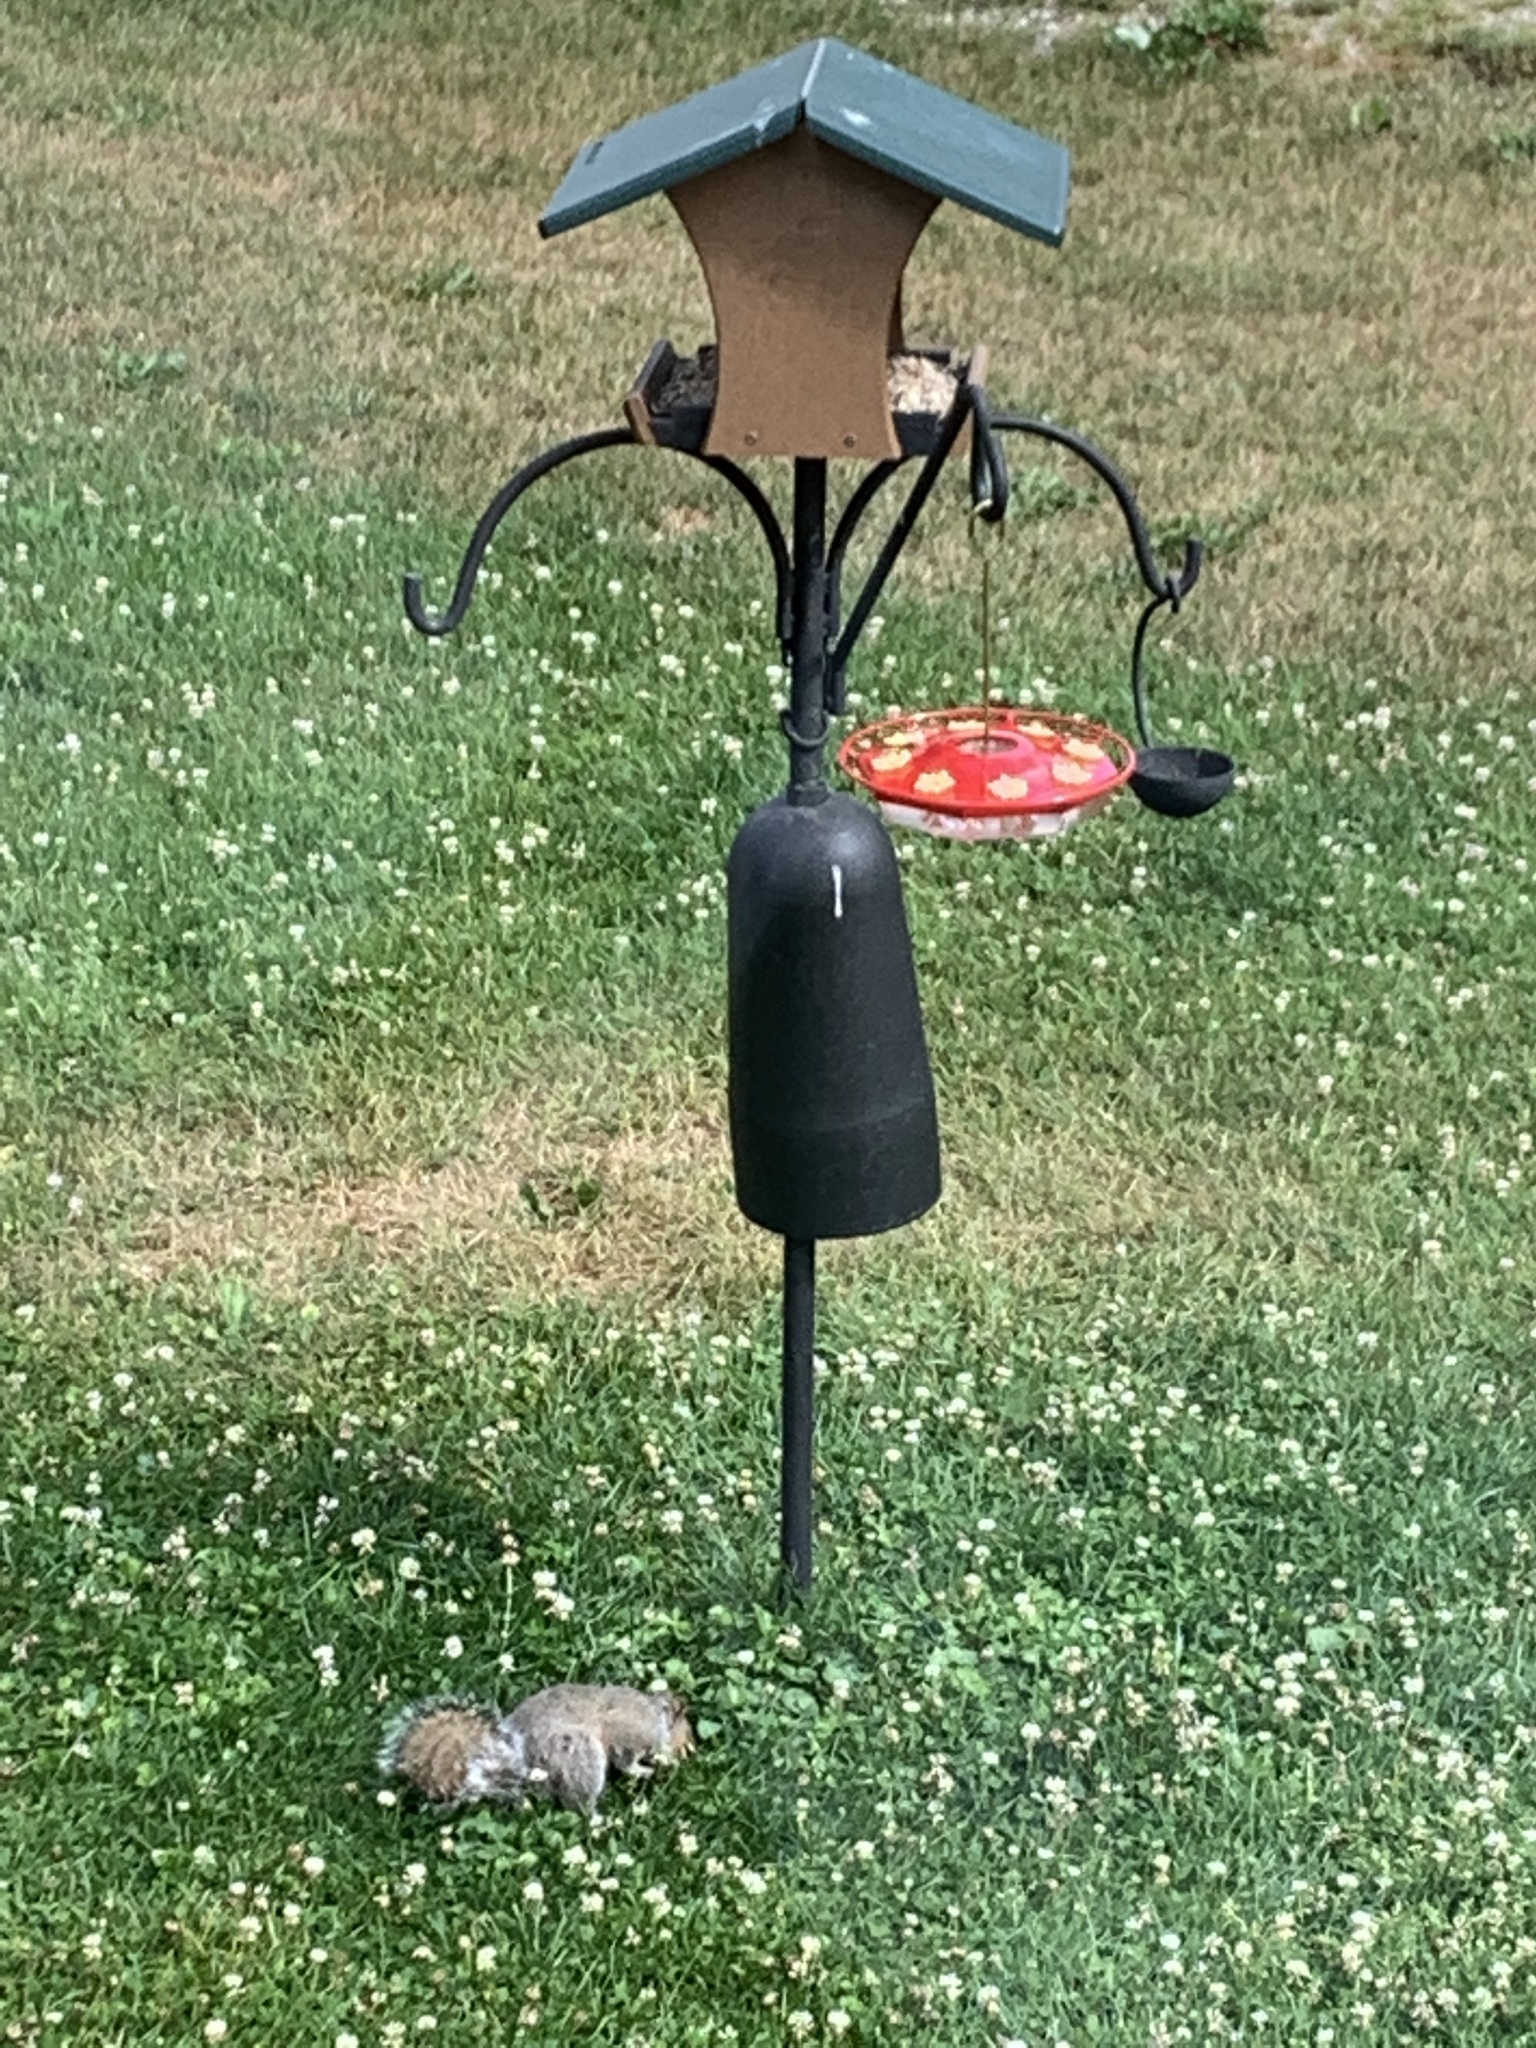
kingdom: Animalia
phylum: Chordata
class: Mammalia
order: Rodentia
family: Sciuridae
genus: Sciurus
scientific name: Sciurus carolinensis
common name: Eastern gray squirrel
